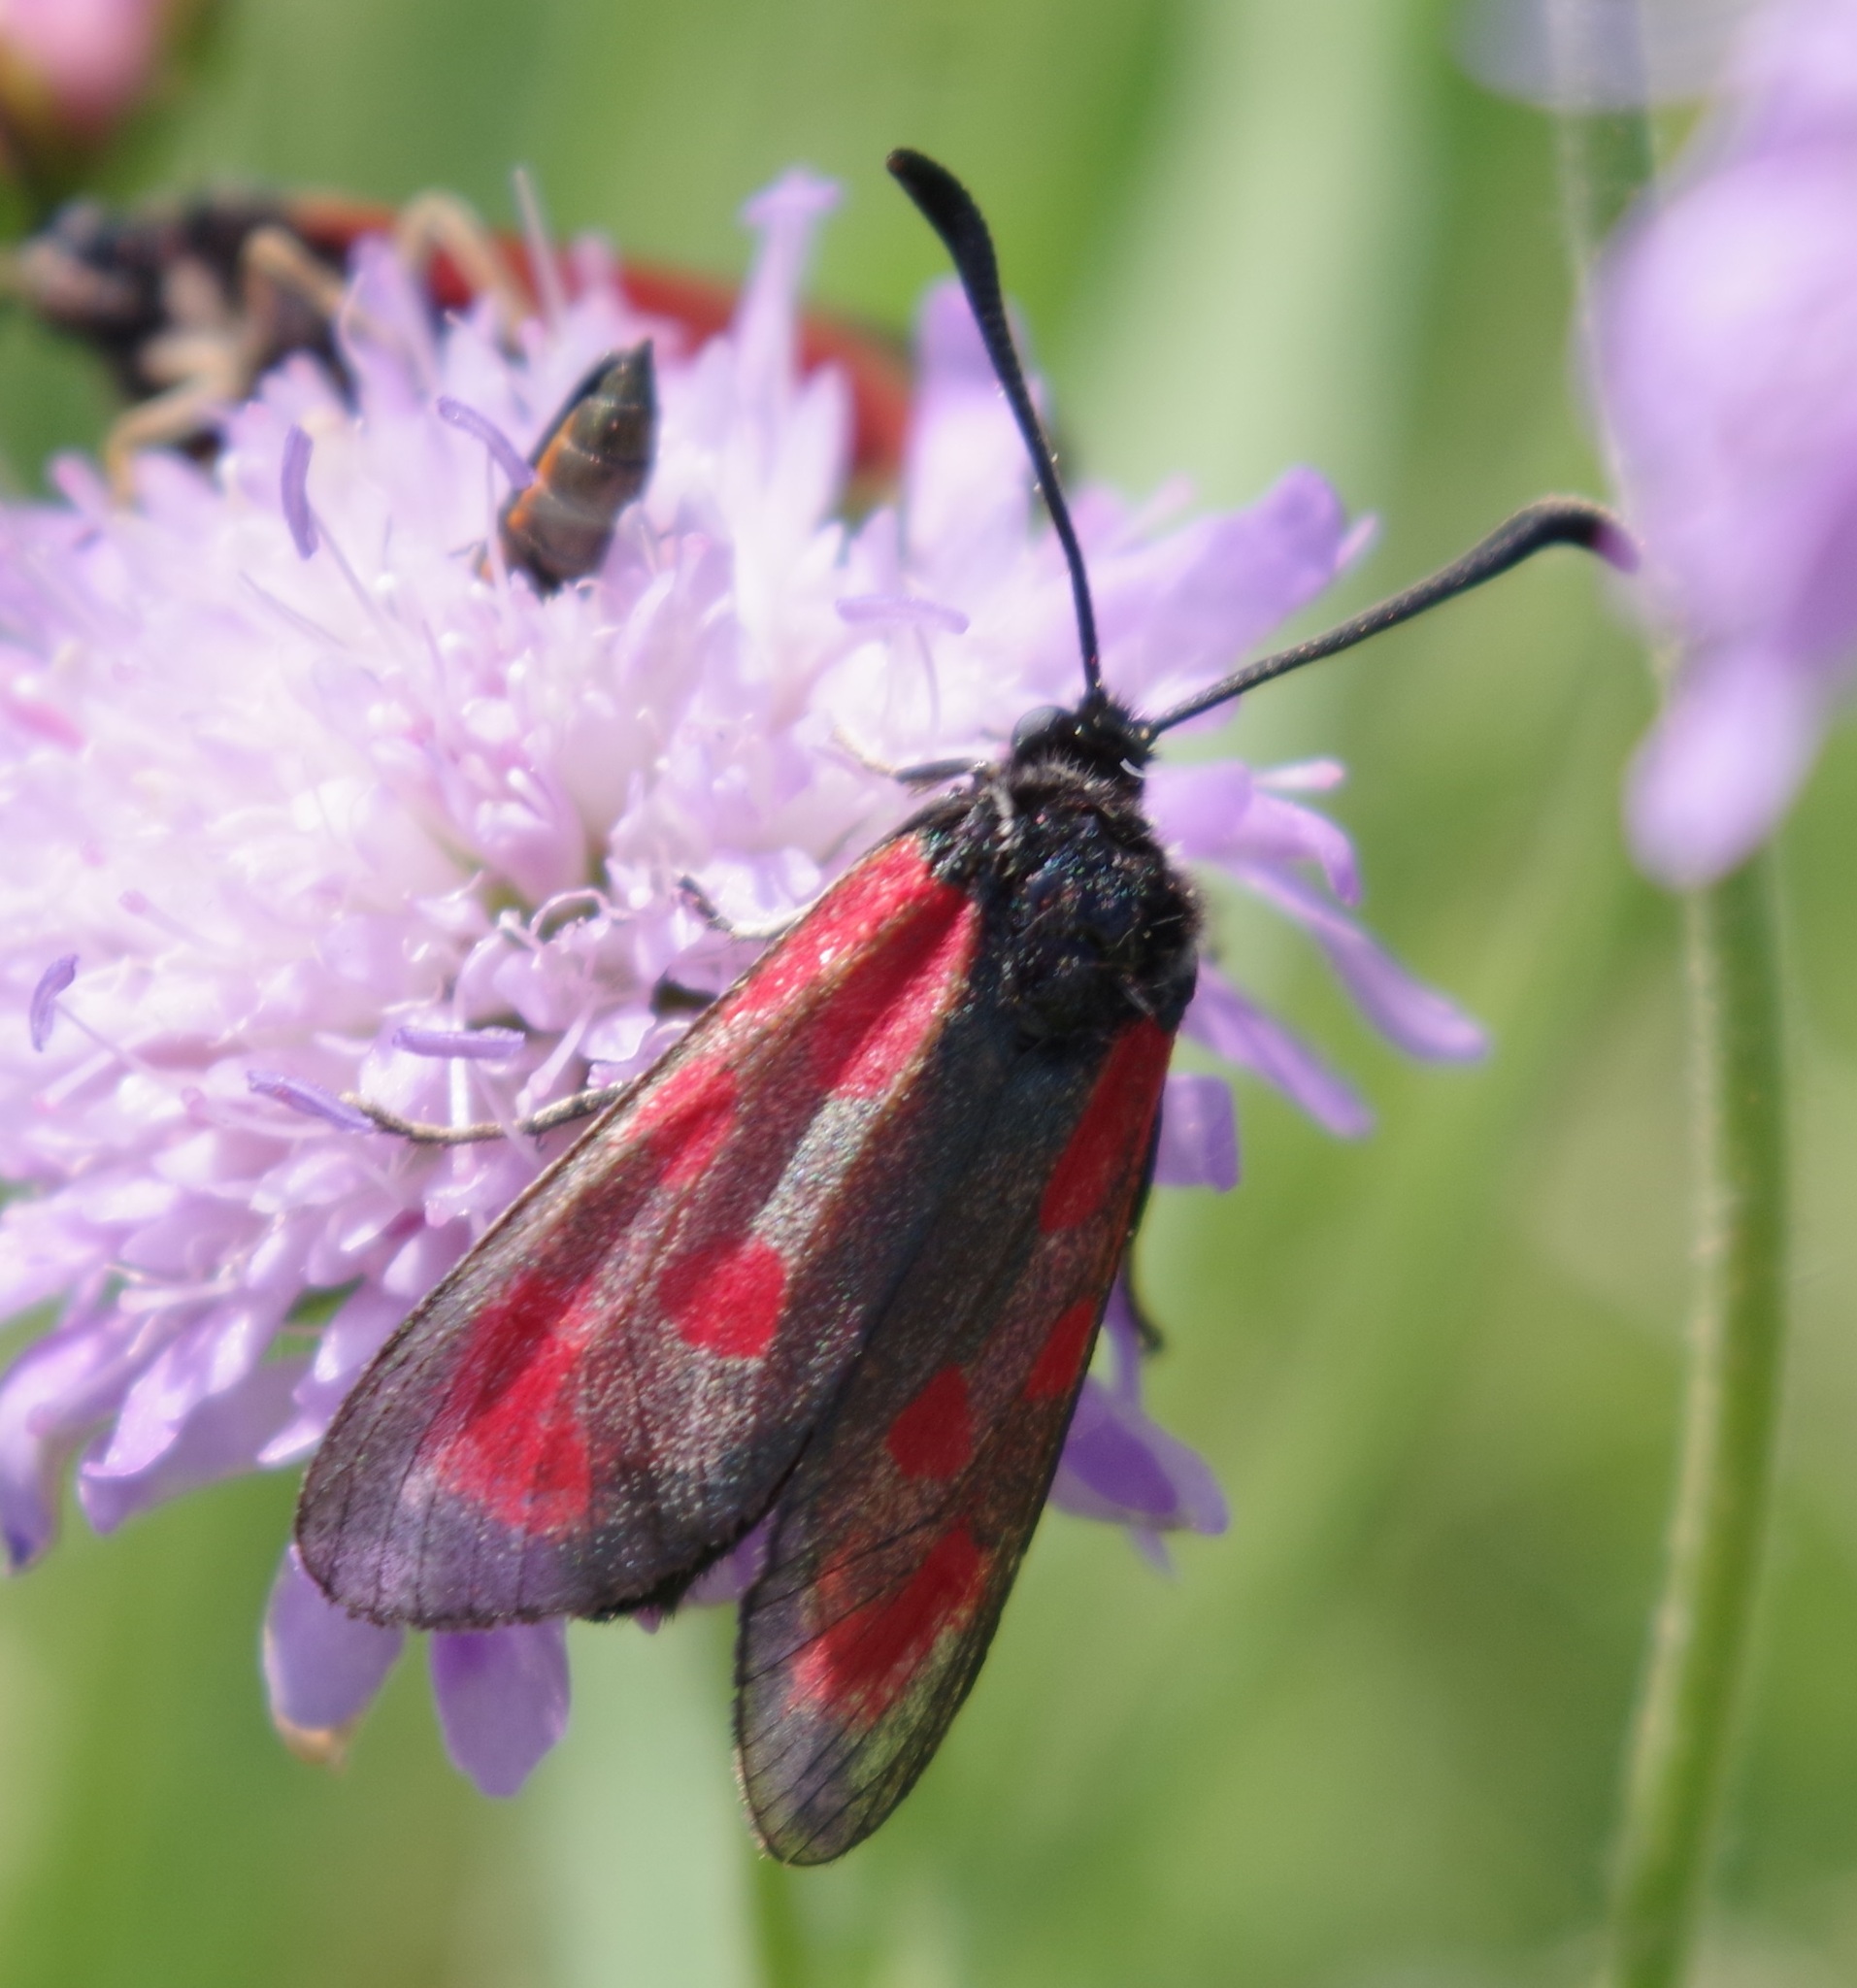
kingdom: Animalia
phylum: Arthropoda
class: Insecta
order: Lepidoptera
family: Zygaenidae
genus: Zygaena
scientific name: Zygaena loti
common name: Slender scotch burnet
